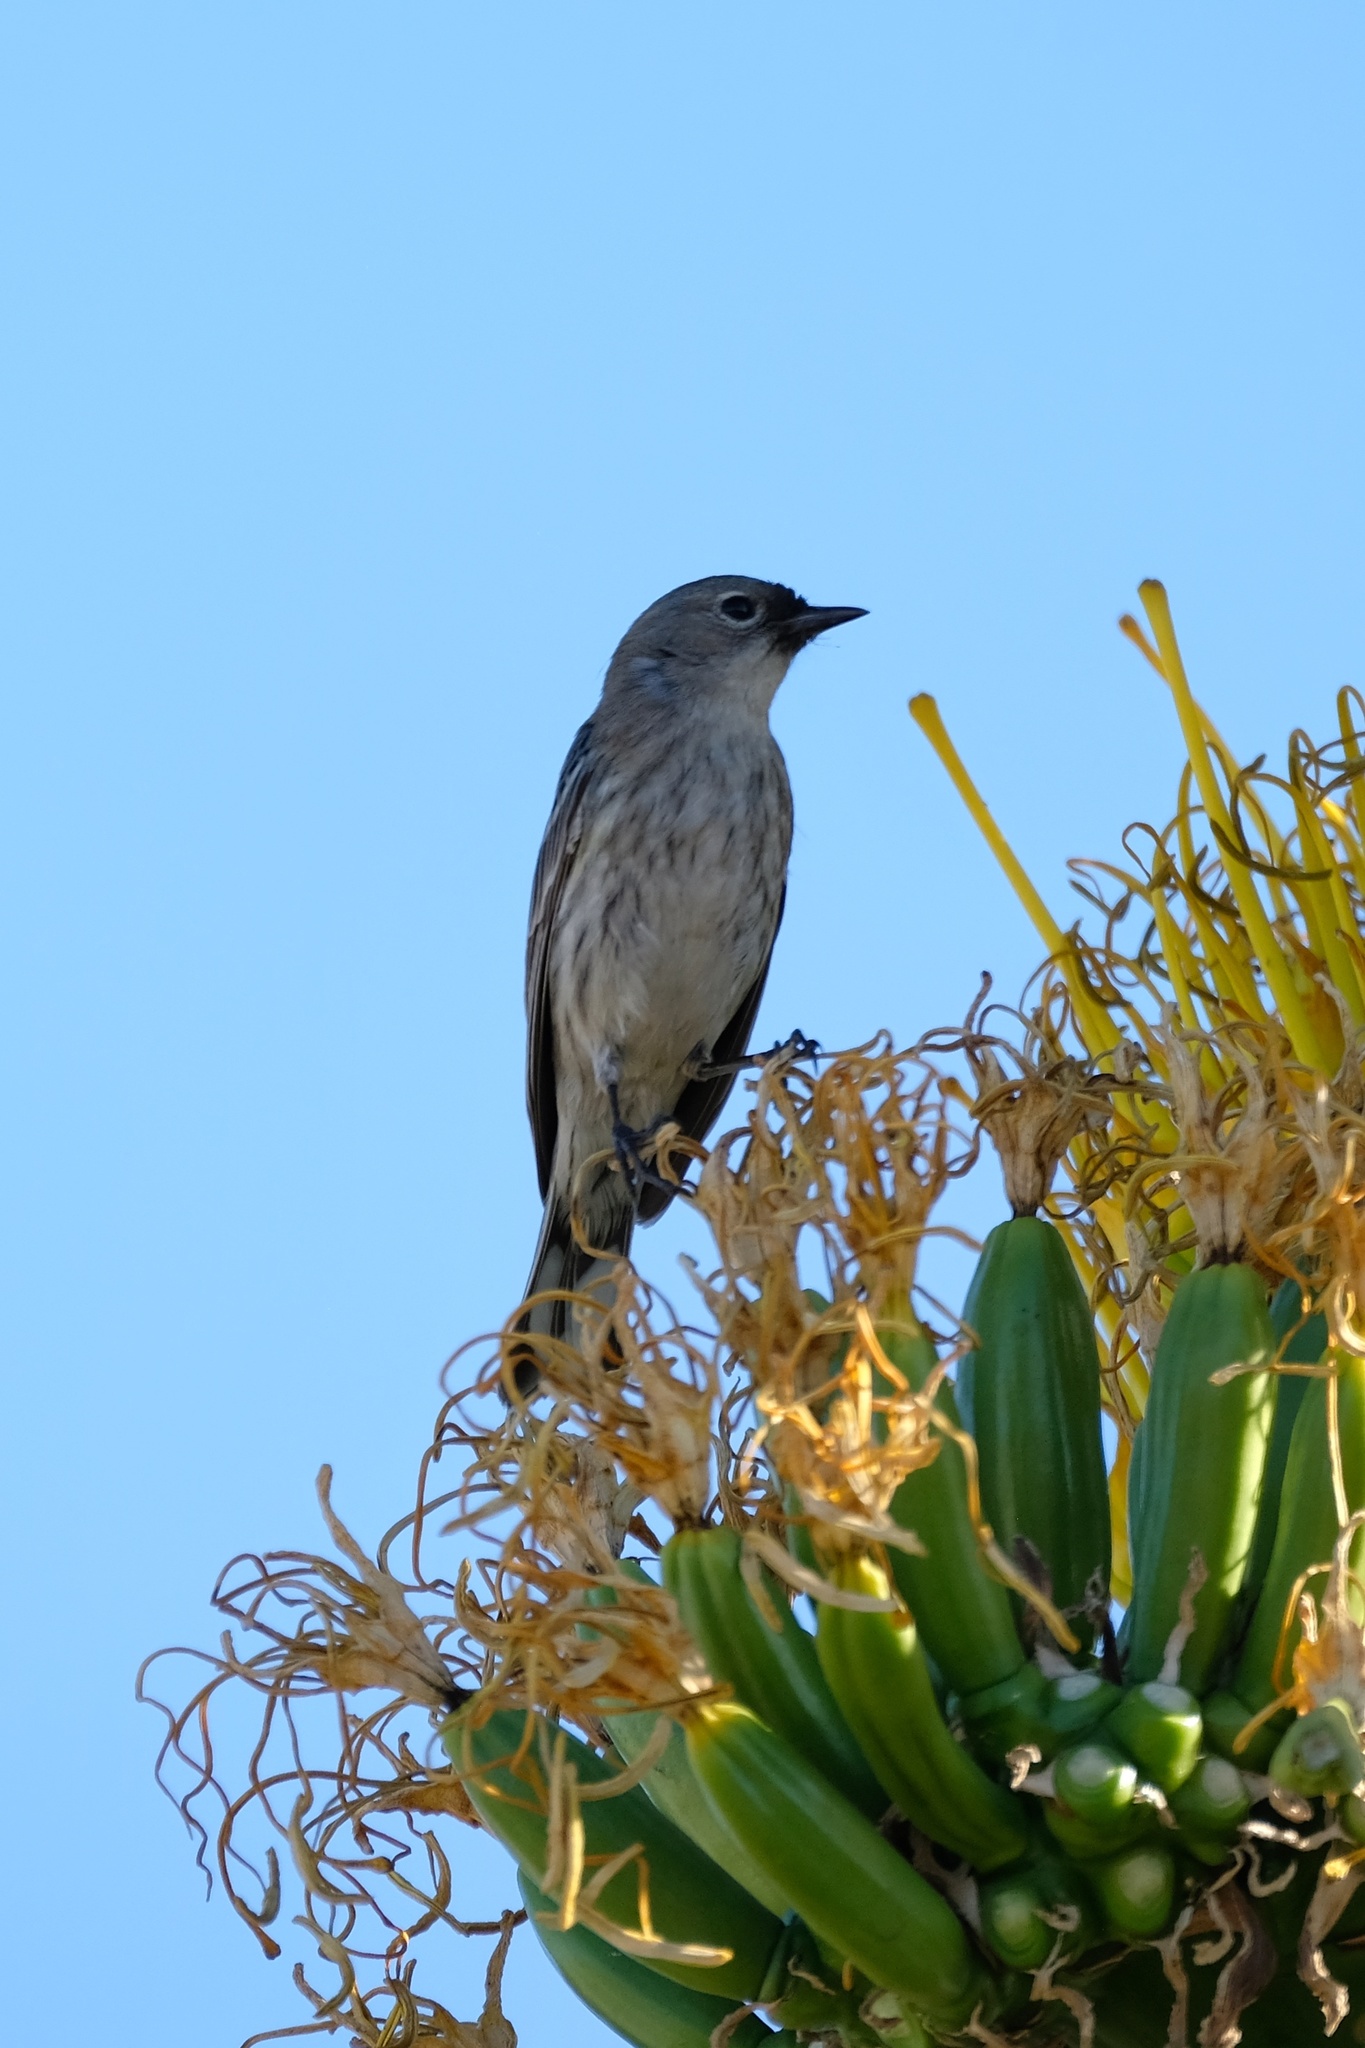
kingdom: Animalia
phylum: Chordata
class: Aves
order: Passeriformes
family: Parulidae
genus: Setophaga
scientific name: Setophaga coronata
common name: Myrtle warbler
